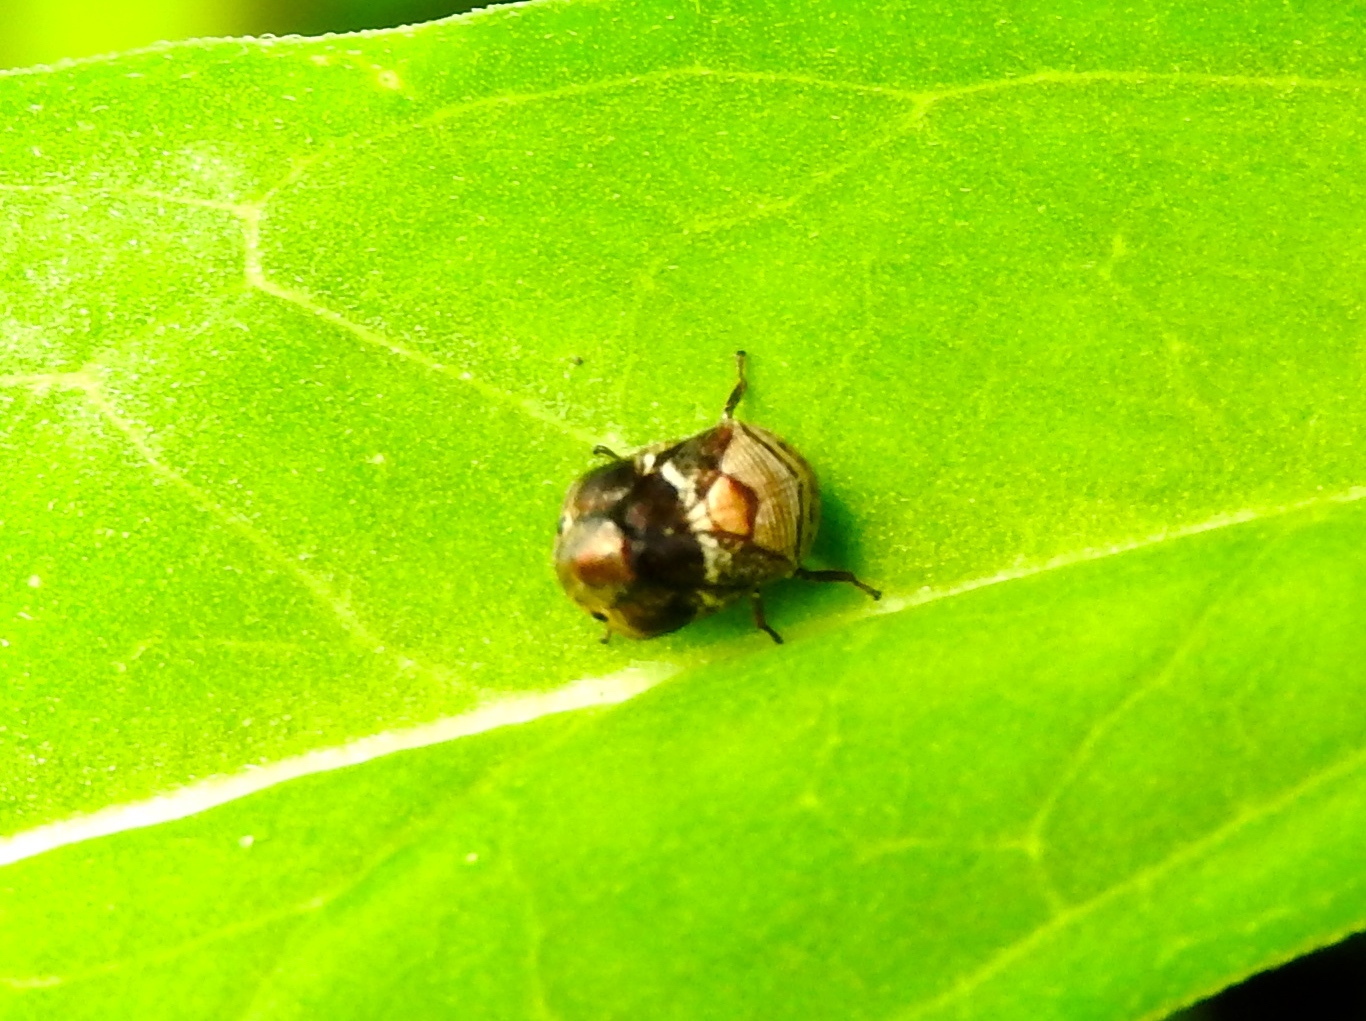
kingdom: Animalia
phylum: Arthropoda
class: Insecta
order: Hemiptera
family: Clastopteridae
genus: Clastoptera
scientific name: Clastoptera
